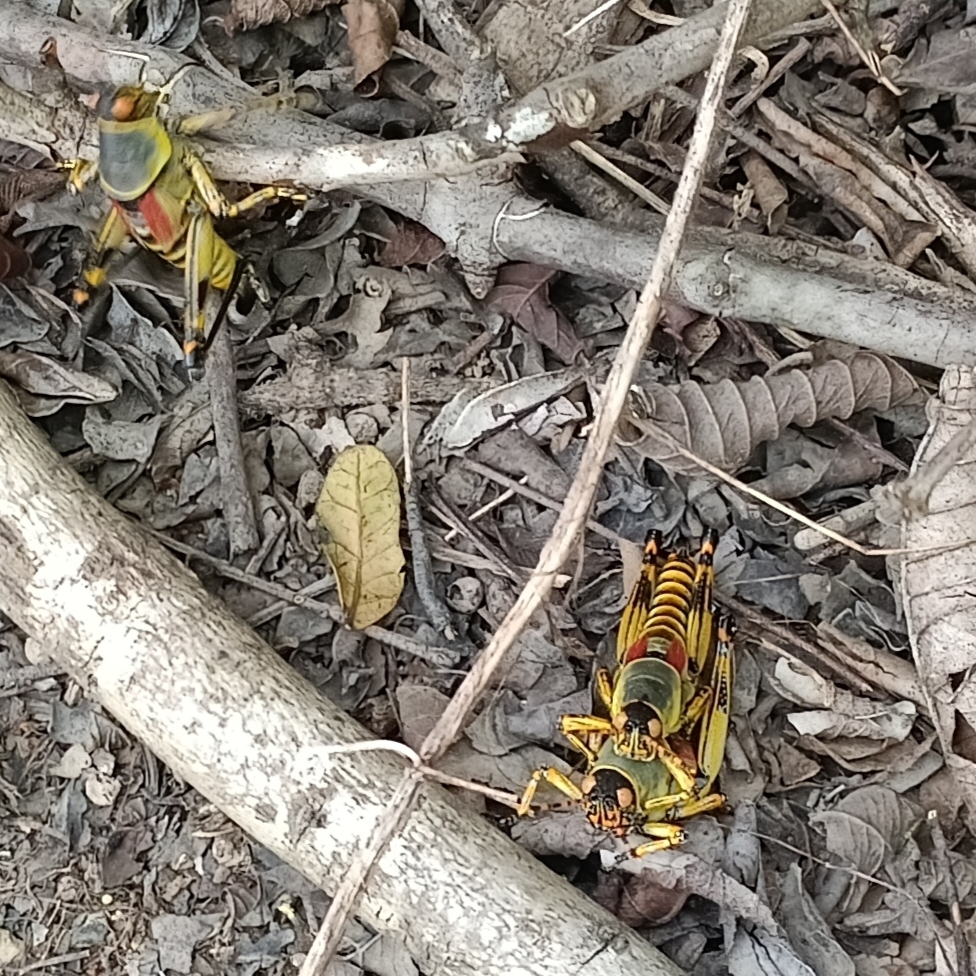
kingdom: Animalia
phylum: Arthropoda
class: Insecta
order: Orthoptera
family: Pyrgomorphidae
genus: Zonocerus
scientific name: Zonocerus elegans
